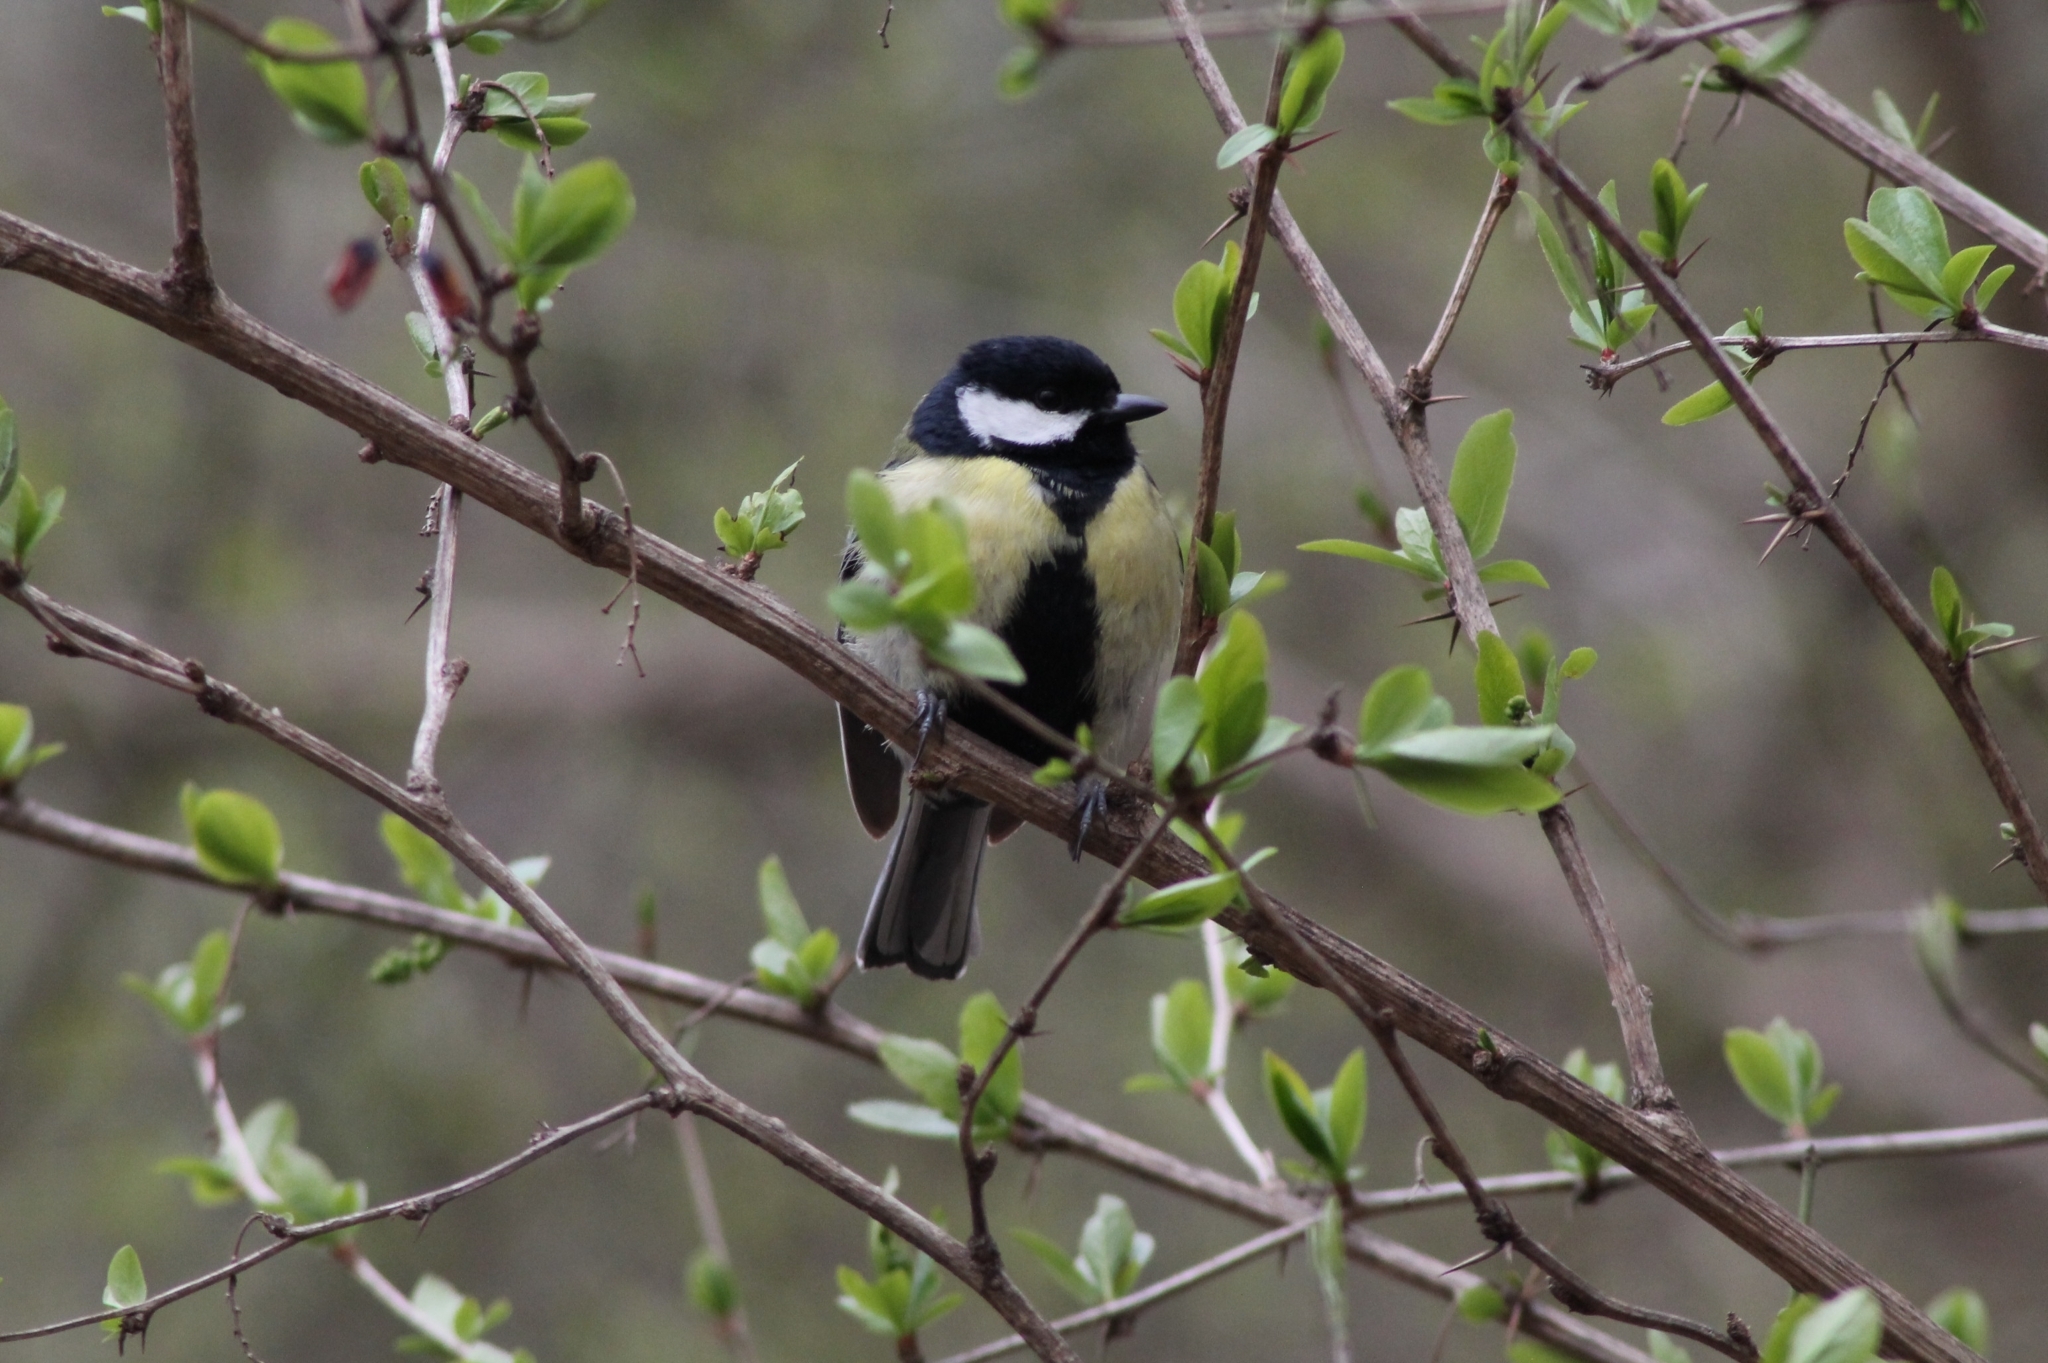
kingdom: Animalia
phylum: Chordata
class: Aves
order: Passeriformes
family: Paridae
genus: Parus
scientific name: Parus major
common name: Great tit
